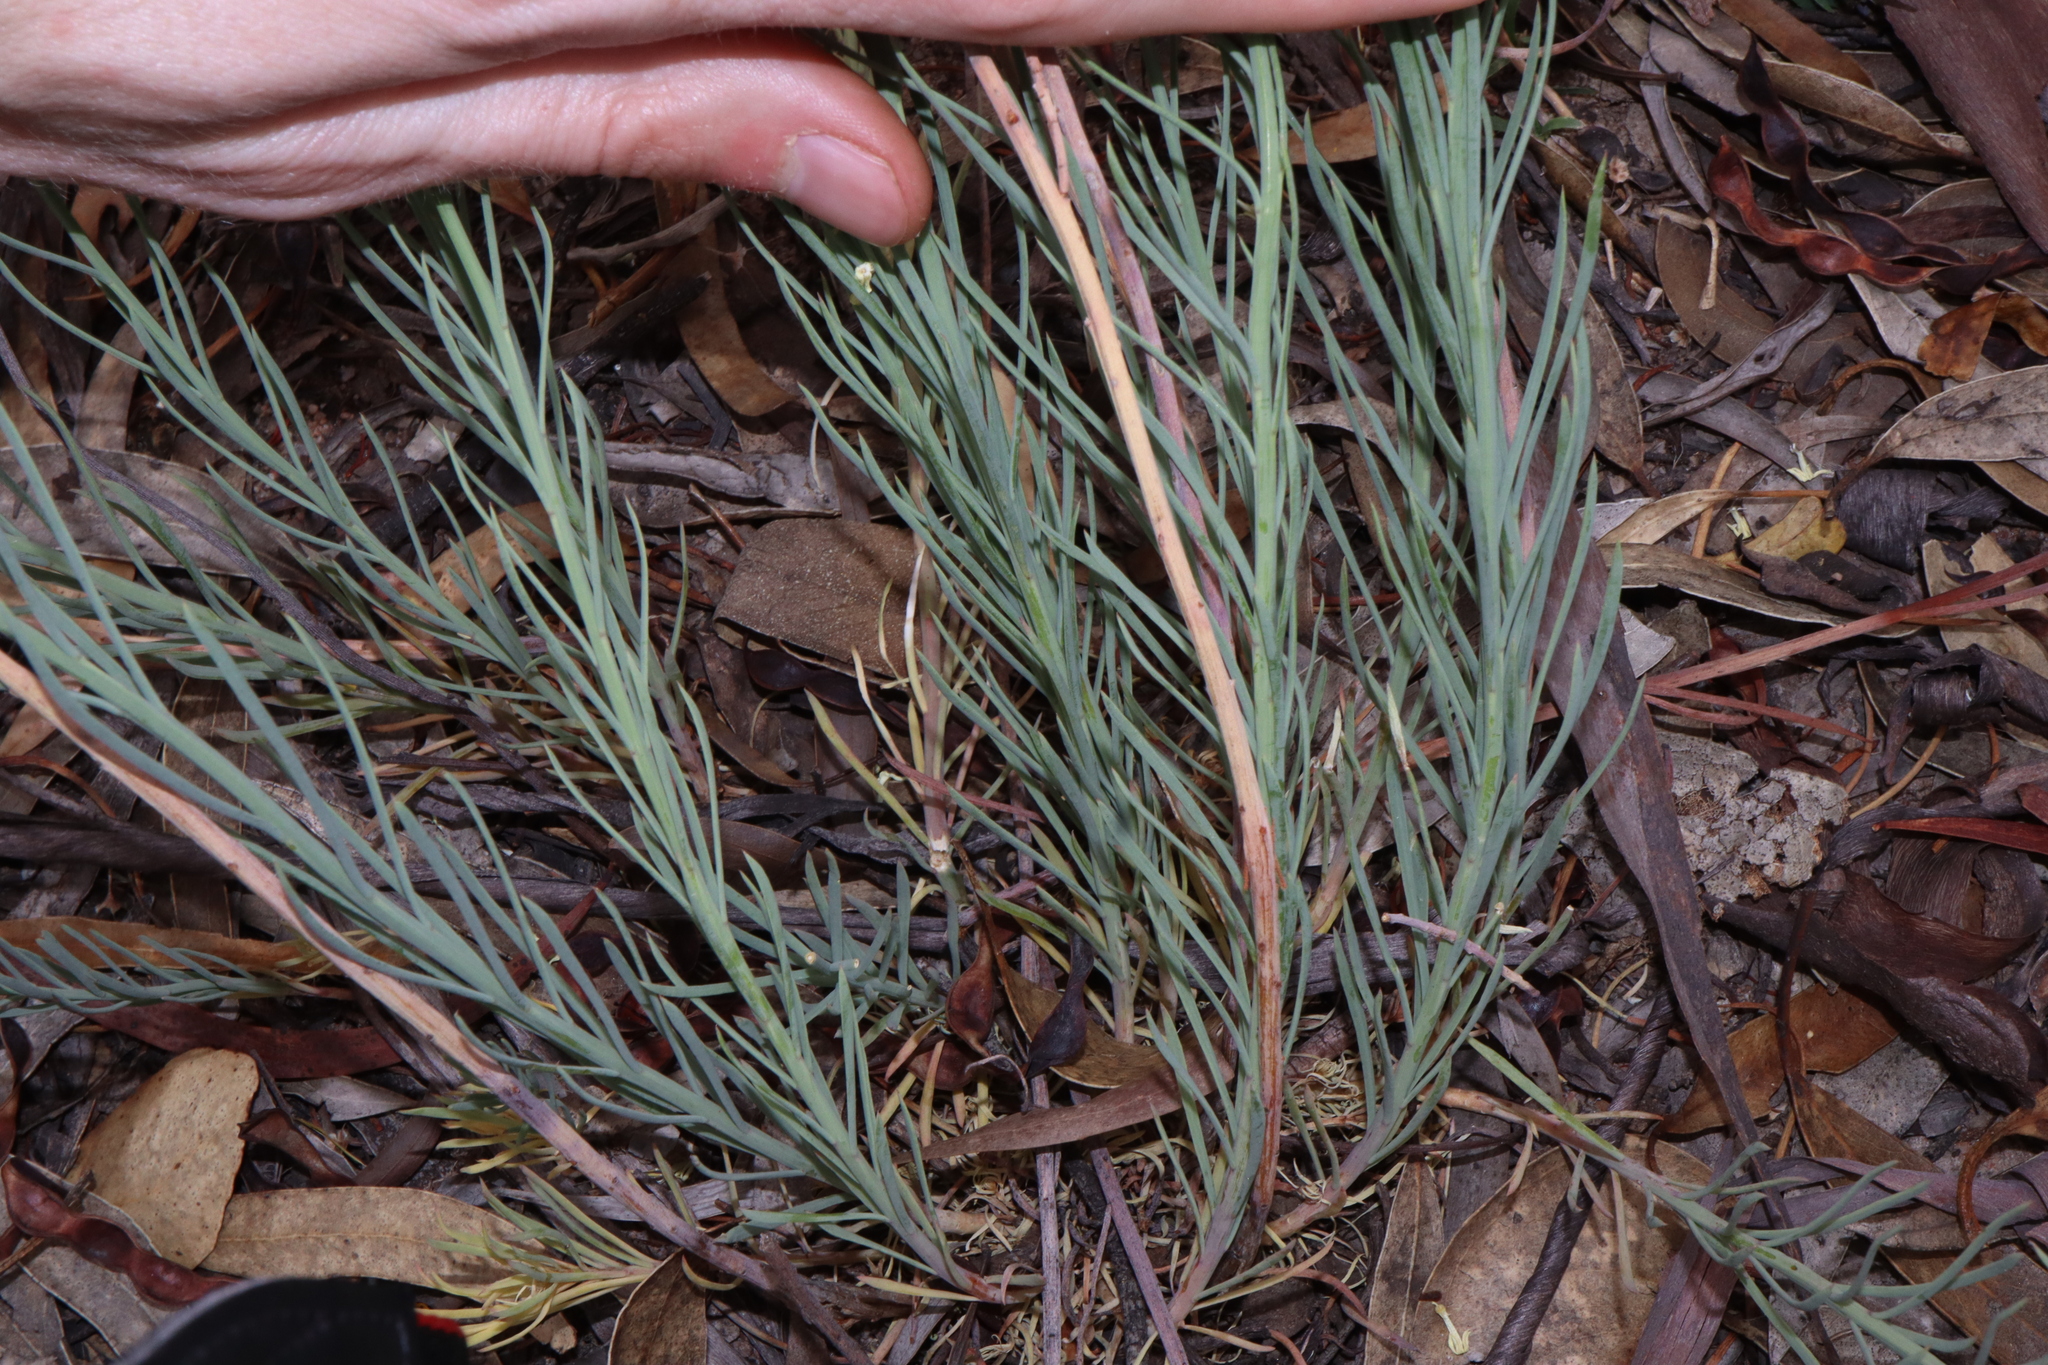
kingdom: Plantae
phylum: Tracheophyta
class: Magnoliopsida
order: Celastrales
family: Celastraceae
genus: Stackhousia
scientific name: Stackhousia monogyna
